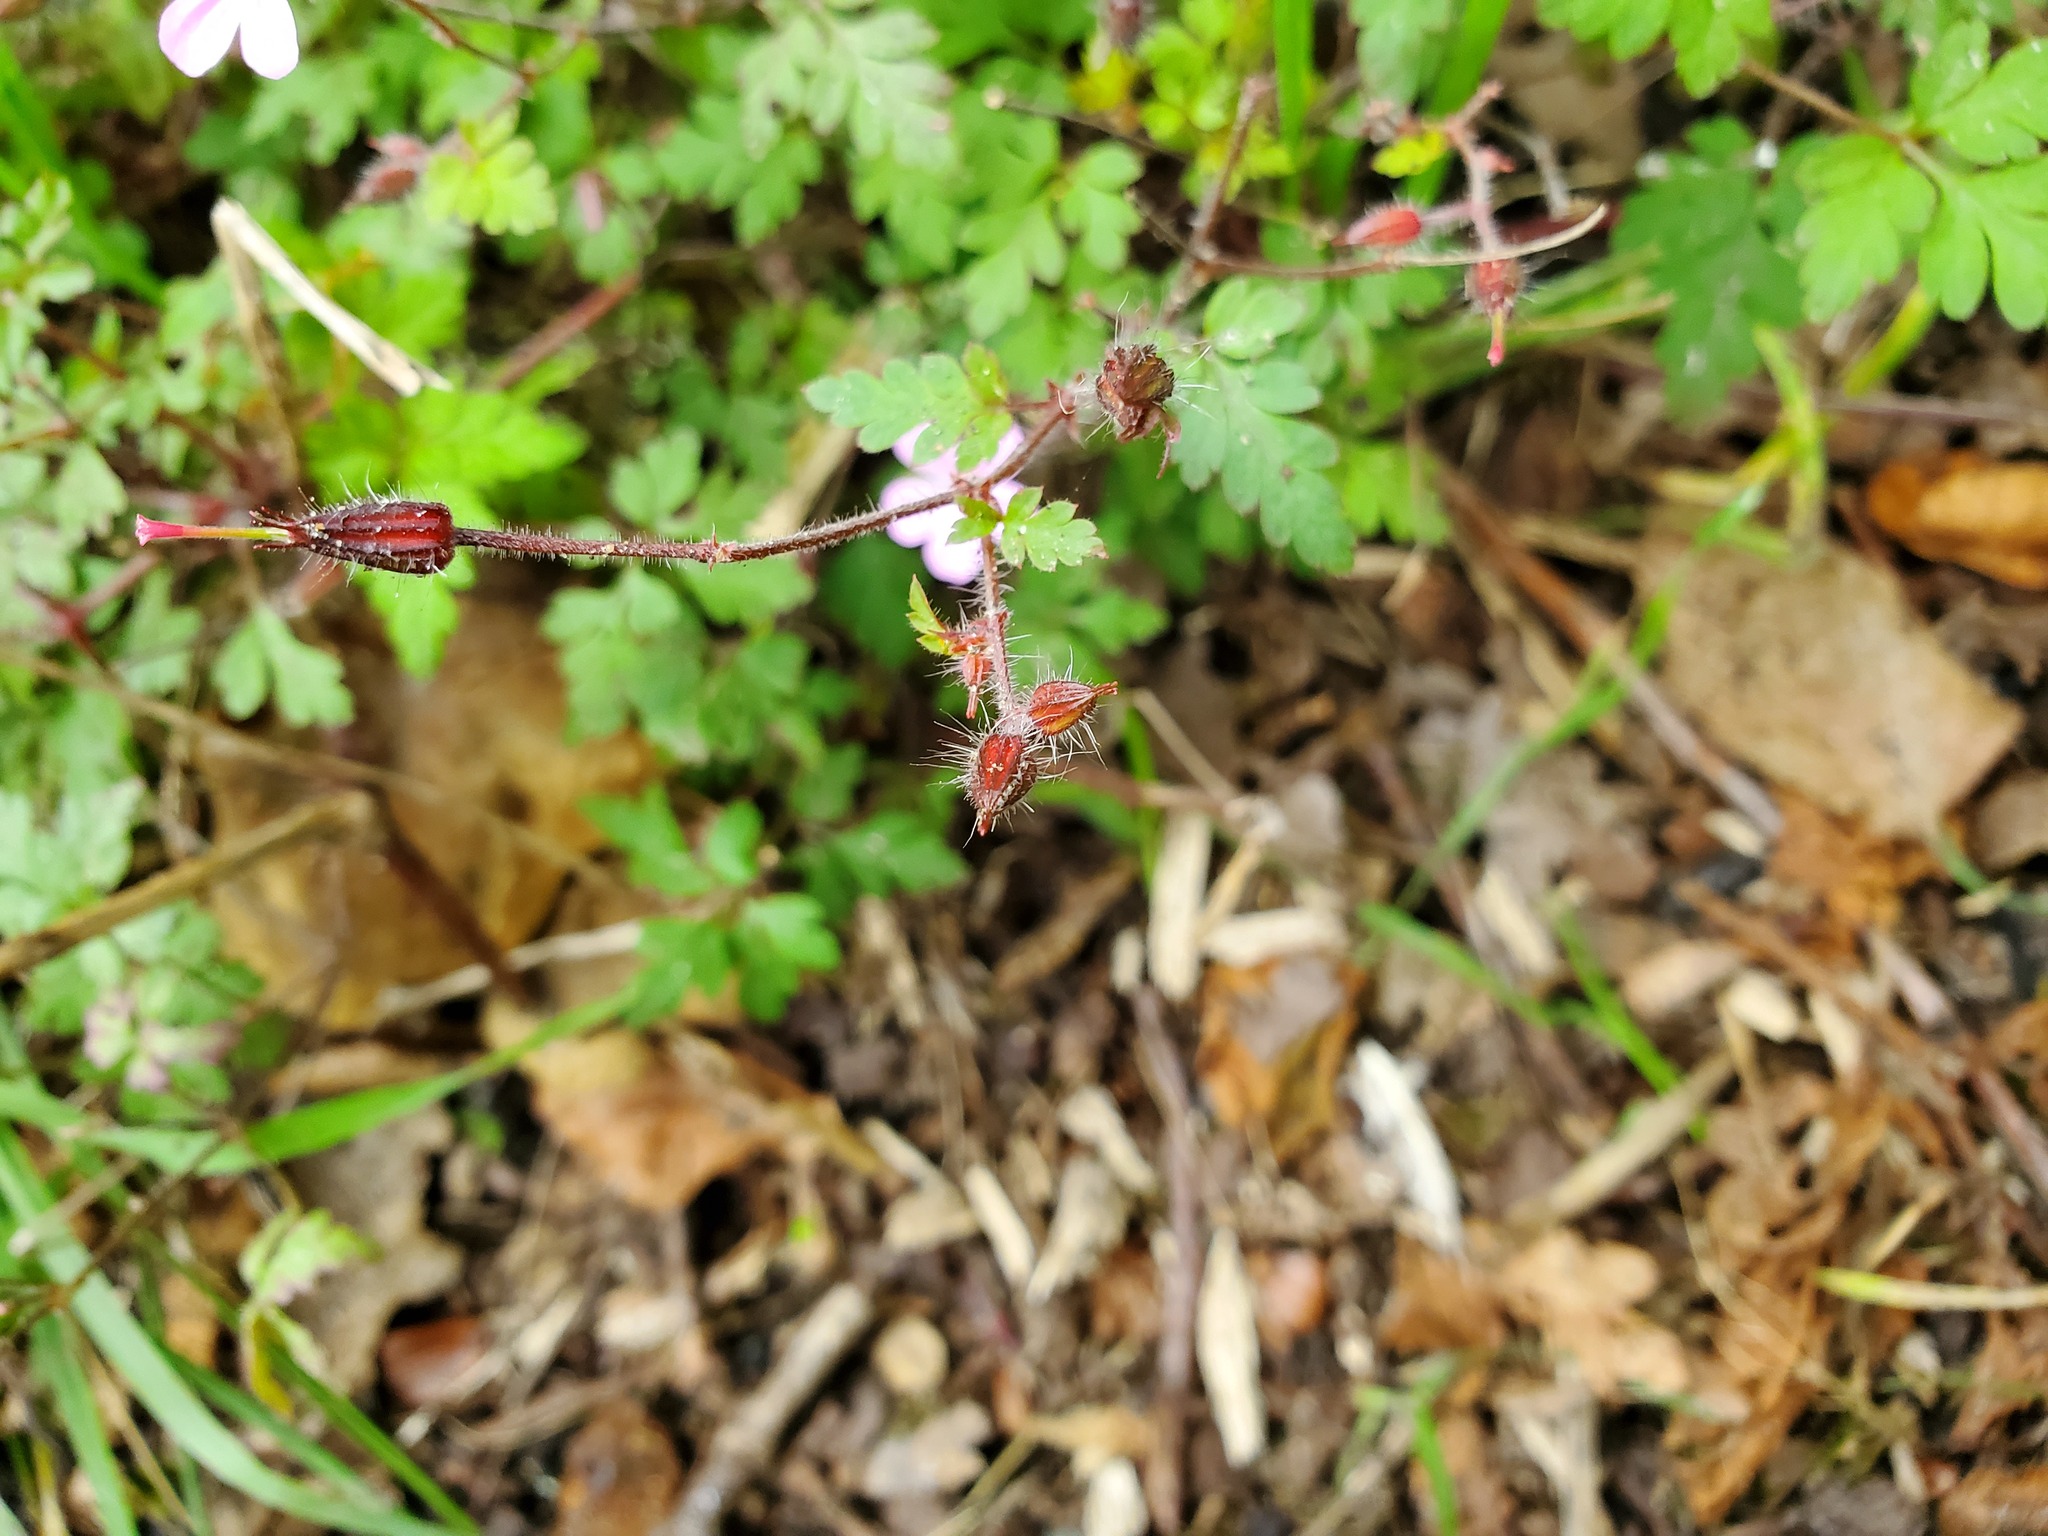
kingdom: Plantae
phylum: Tracheophyta
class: Magnoliopsida
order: Geraniales
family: Geraniaceae
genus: Geranium
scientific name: Geranium robertianum
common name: Herb-robert
